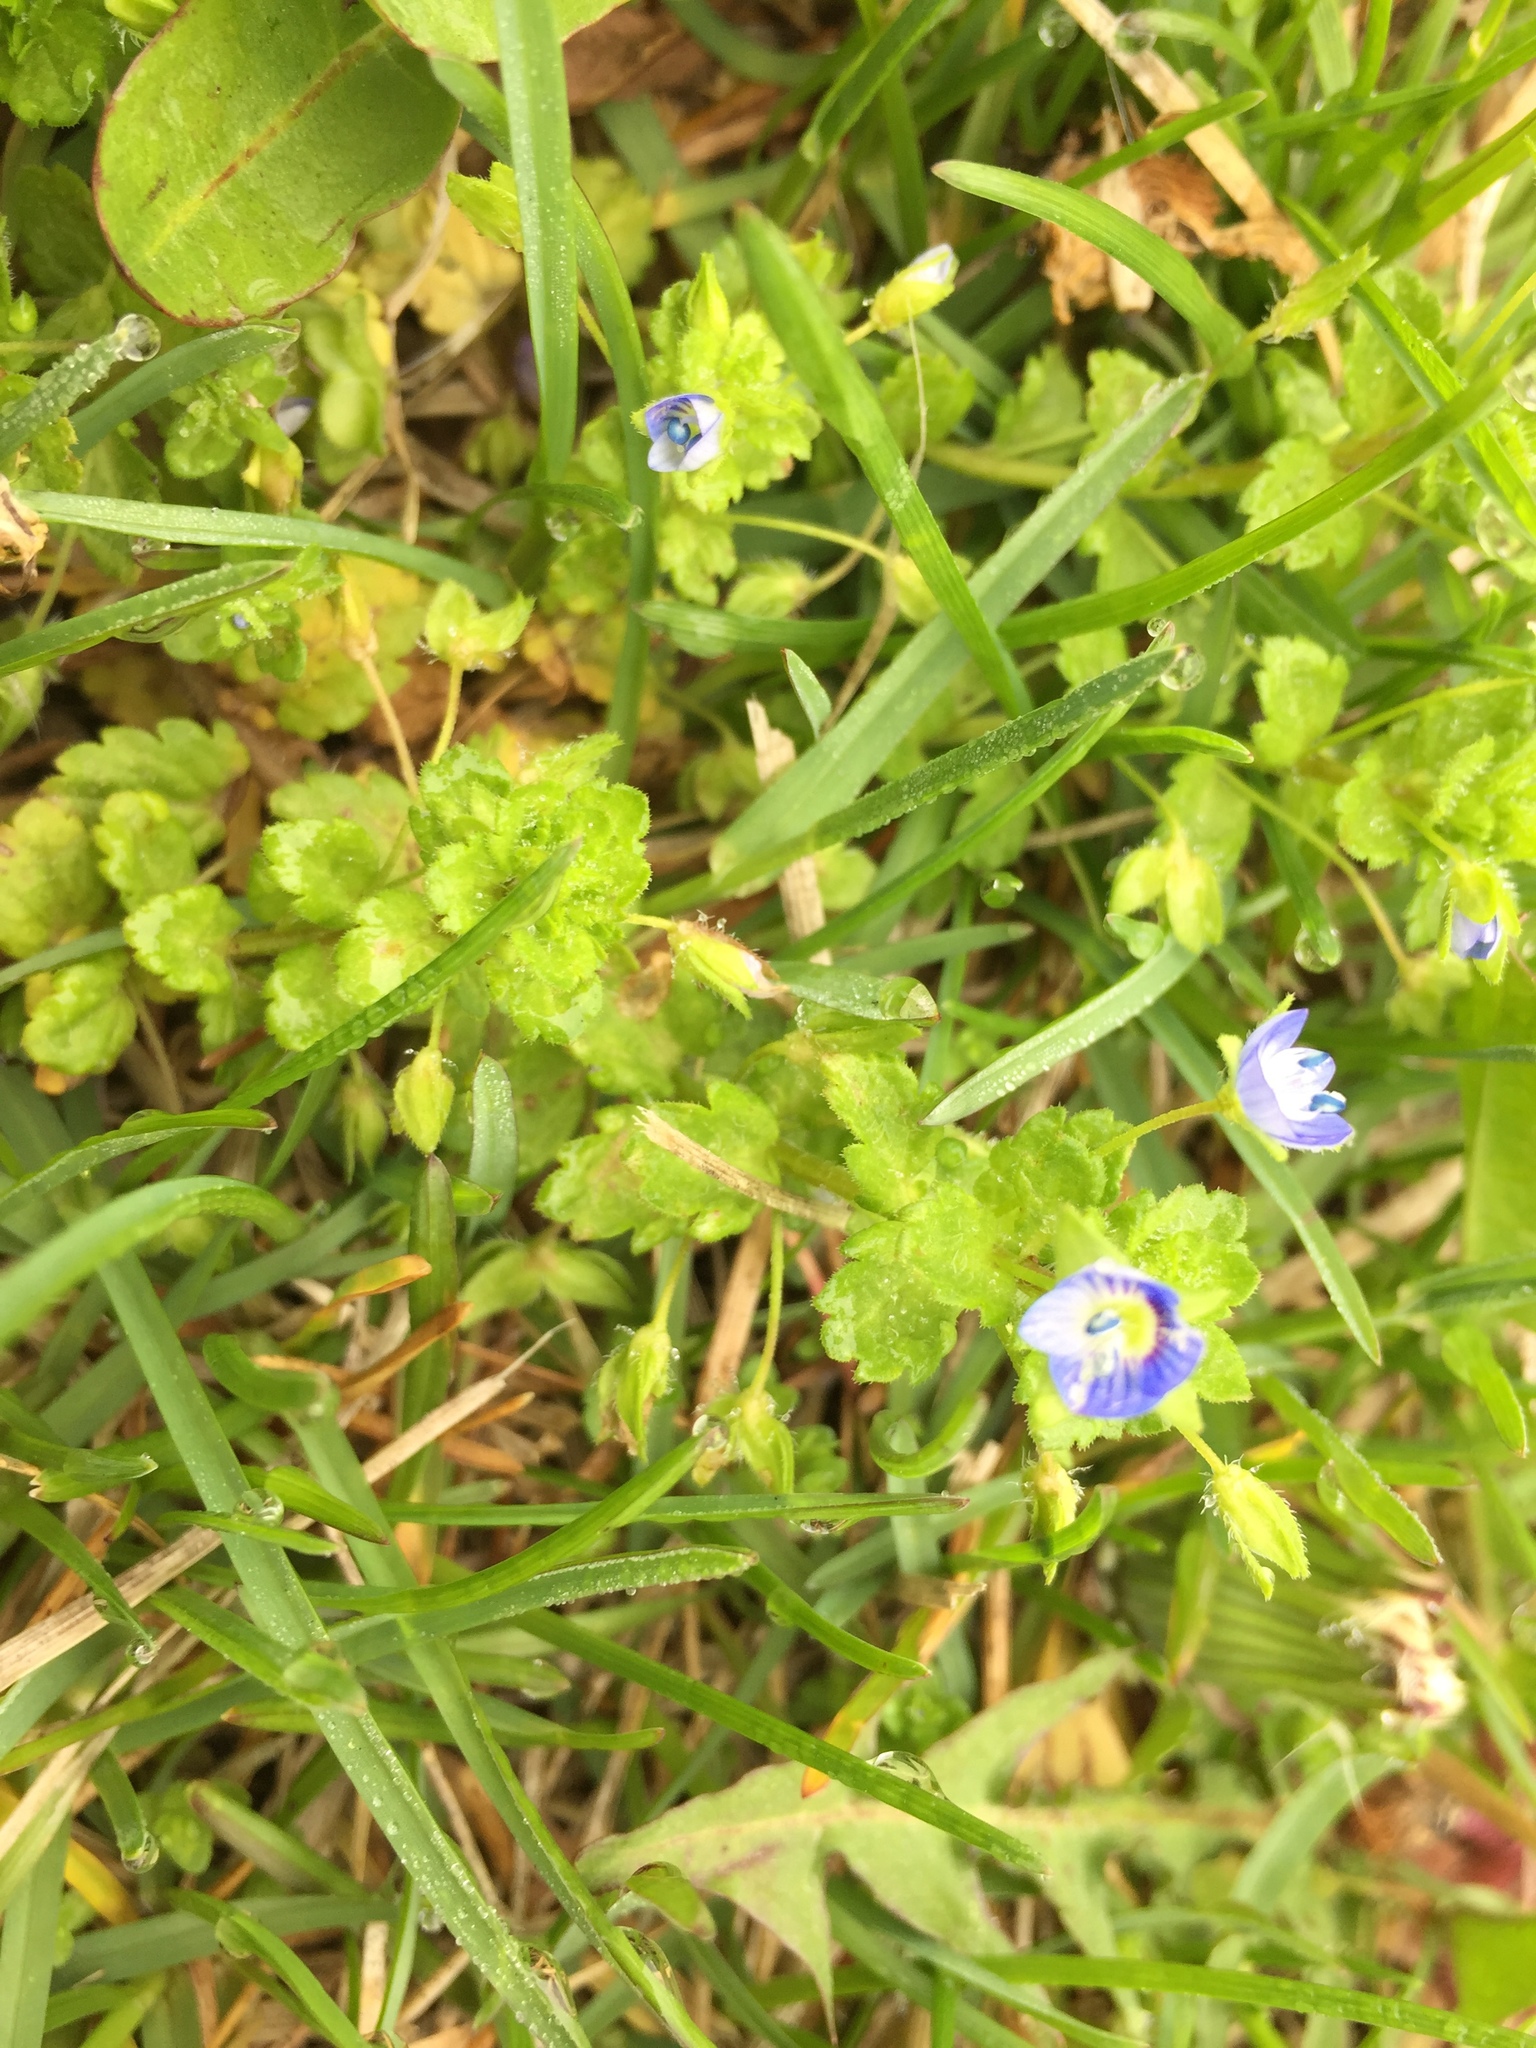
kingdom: Plantae
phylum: Tracheophyta
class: Magnoliopsida
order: Lamiales
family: Plantaginaceae
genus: Veronica
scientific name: Veronica persica
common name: Common field-speedwell
